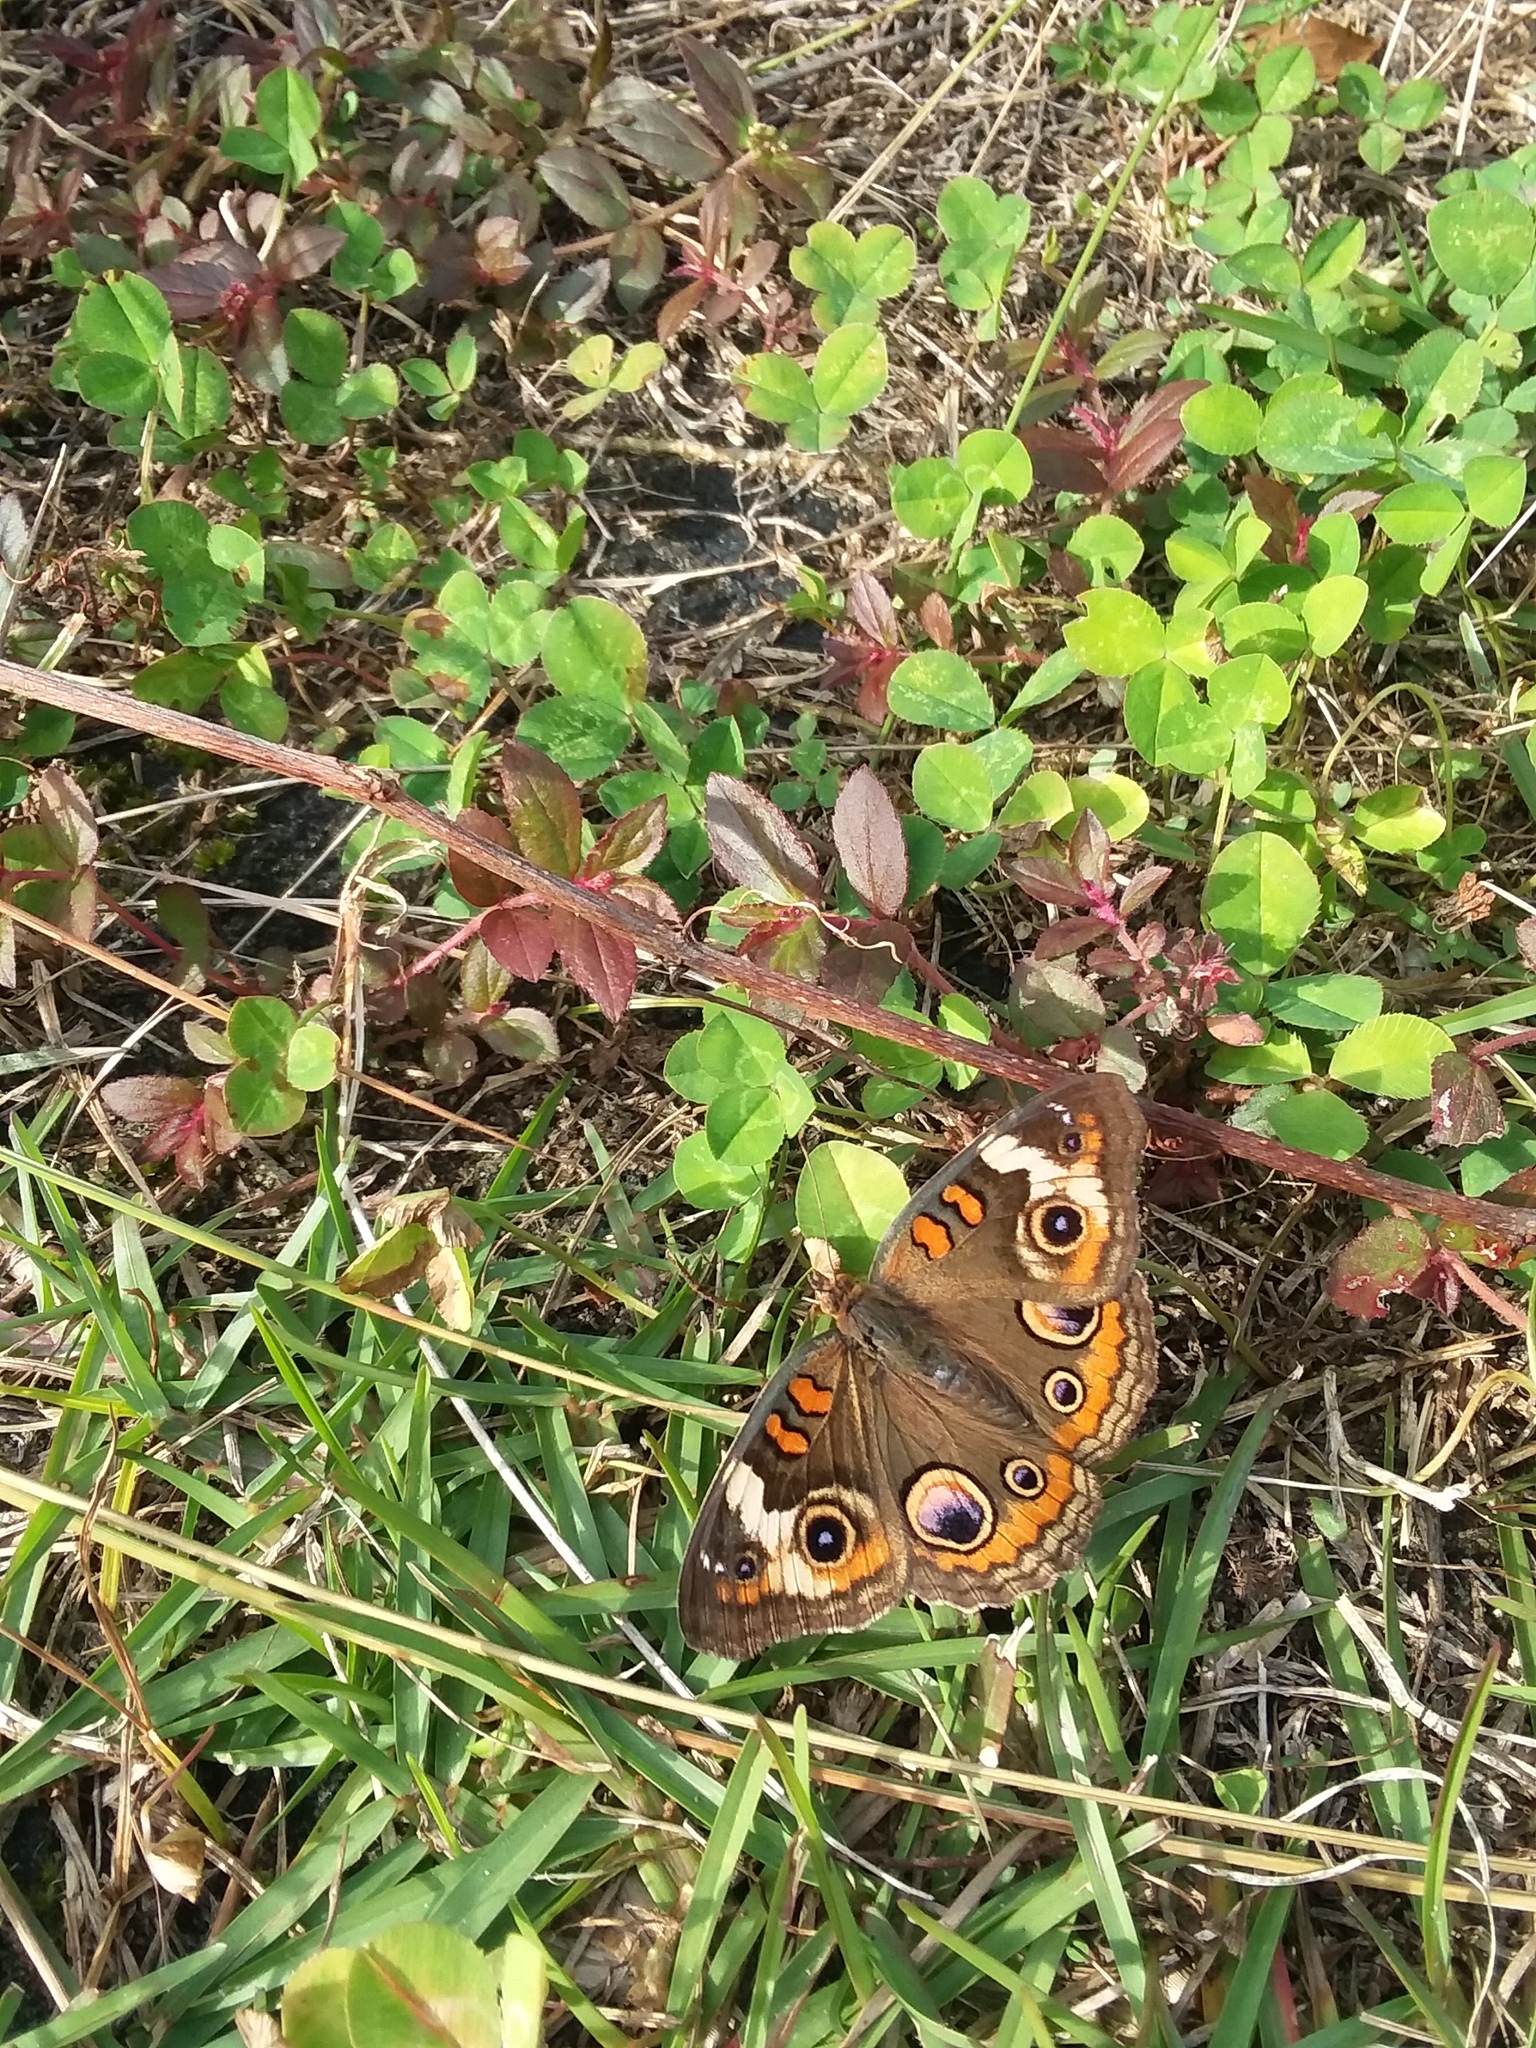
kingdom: Animalia
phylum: Arthropoda
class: Insecta
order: Lepidoptera
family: Nymphalidae
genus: Junonia
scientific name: Junonia coenia
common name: Common buckeye
